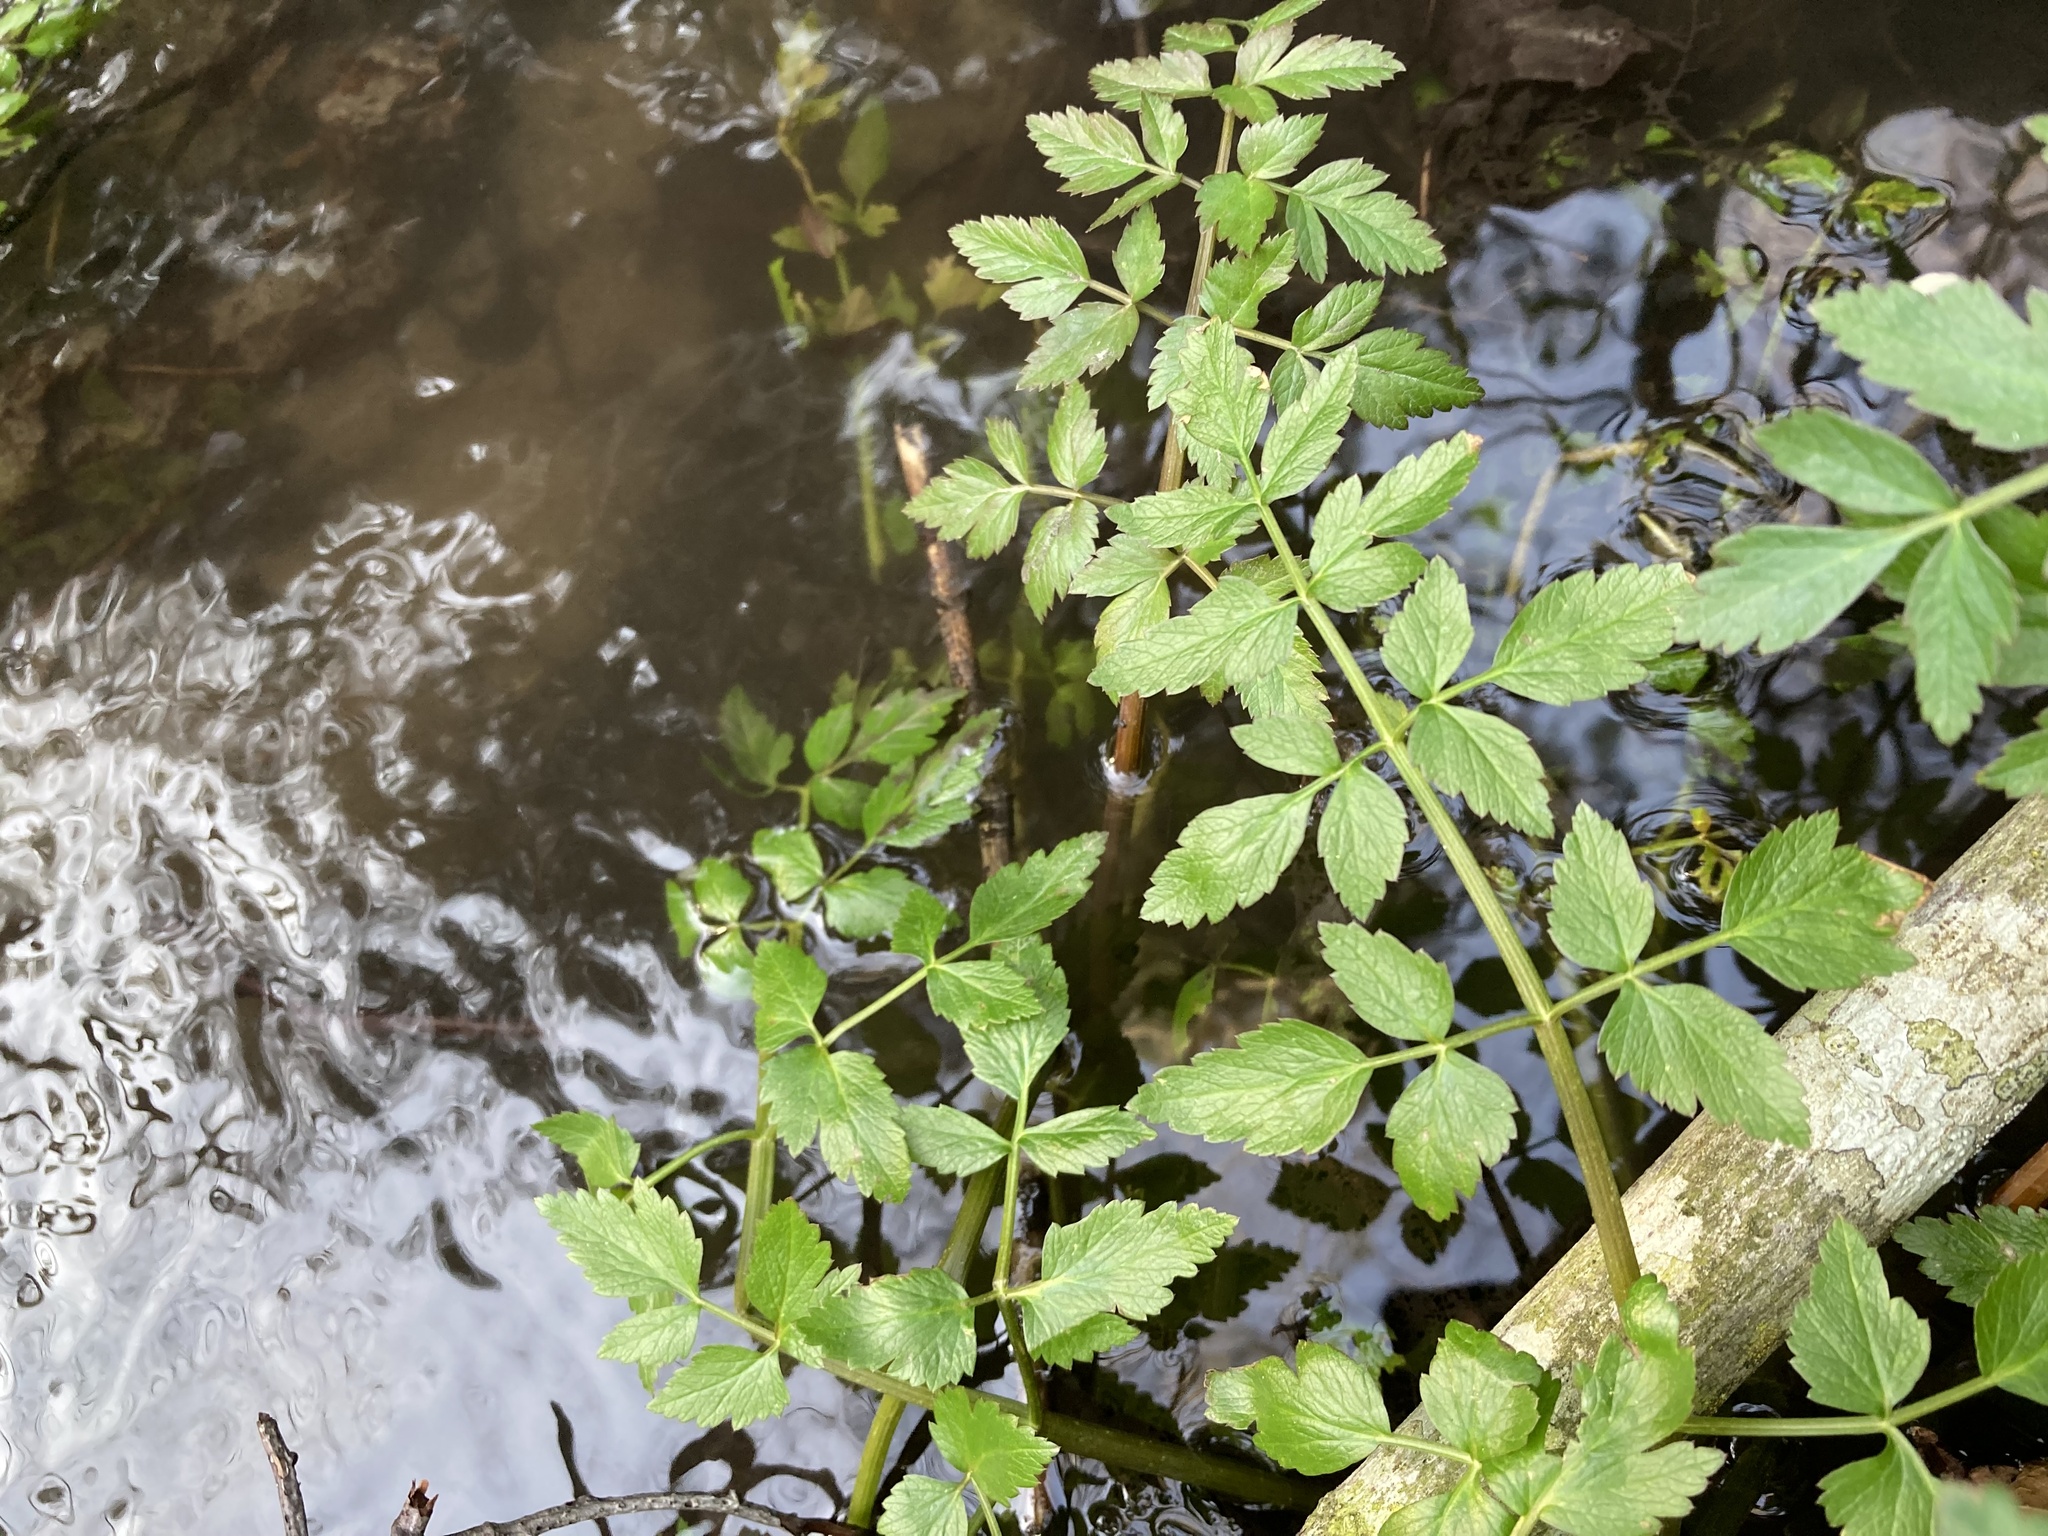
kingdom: Plantae
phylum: Tracheophyta
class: Magnoliopsida
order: Apiales
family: Apiaceae
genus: Oenanthe
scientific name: Oenanthe sarmentosa
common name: American water-parsley
